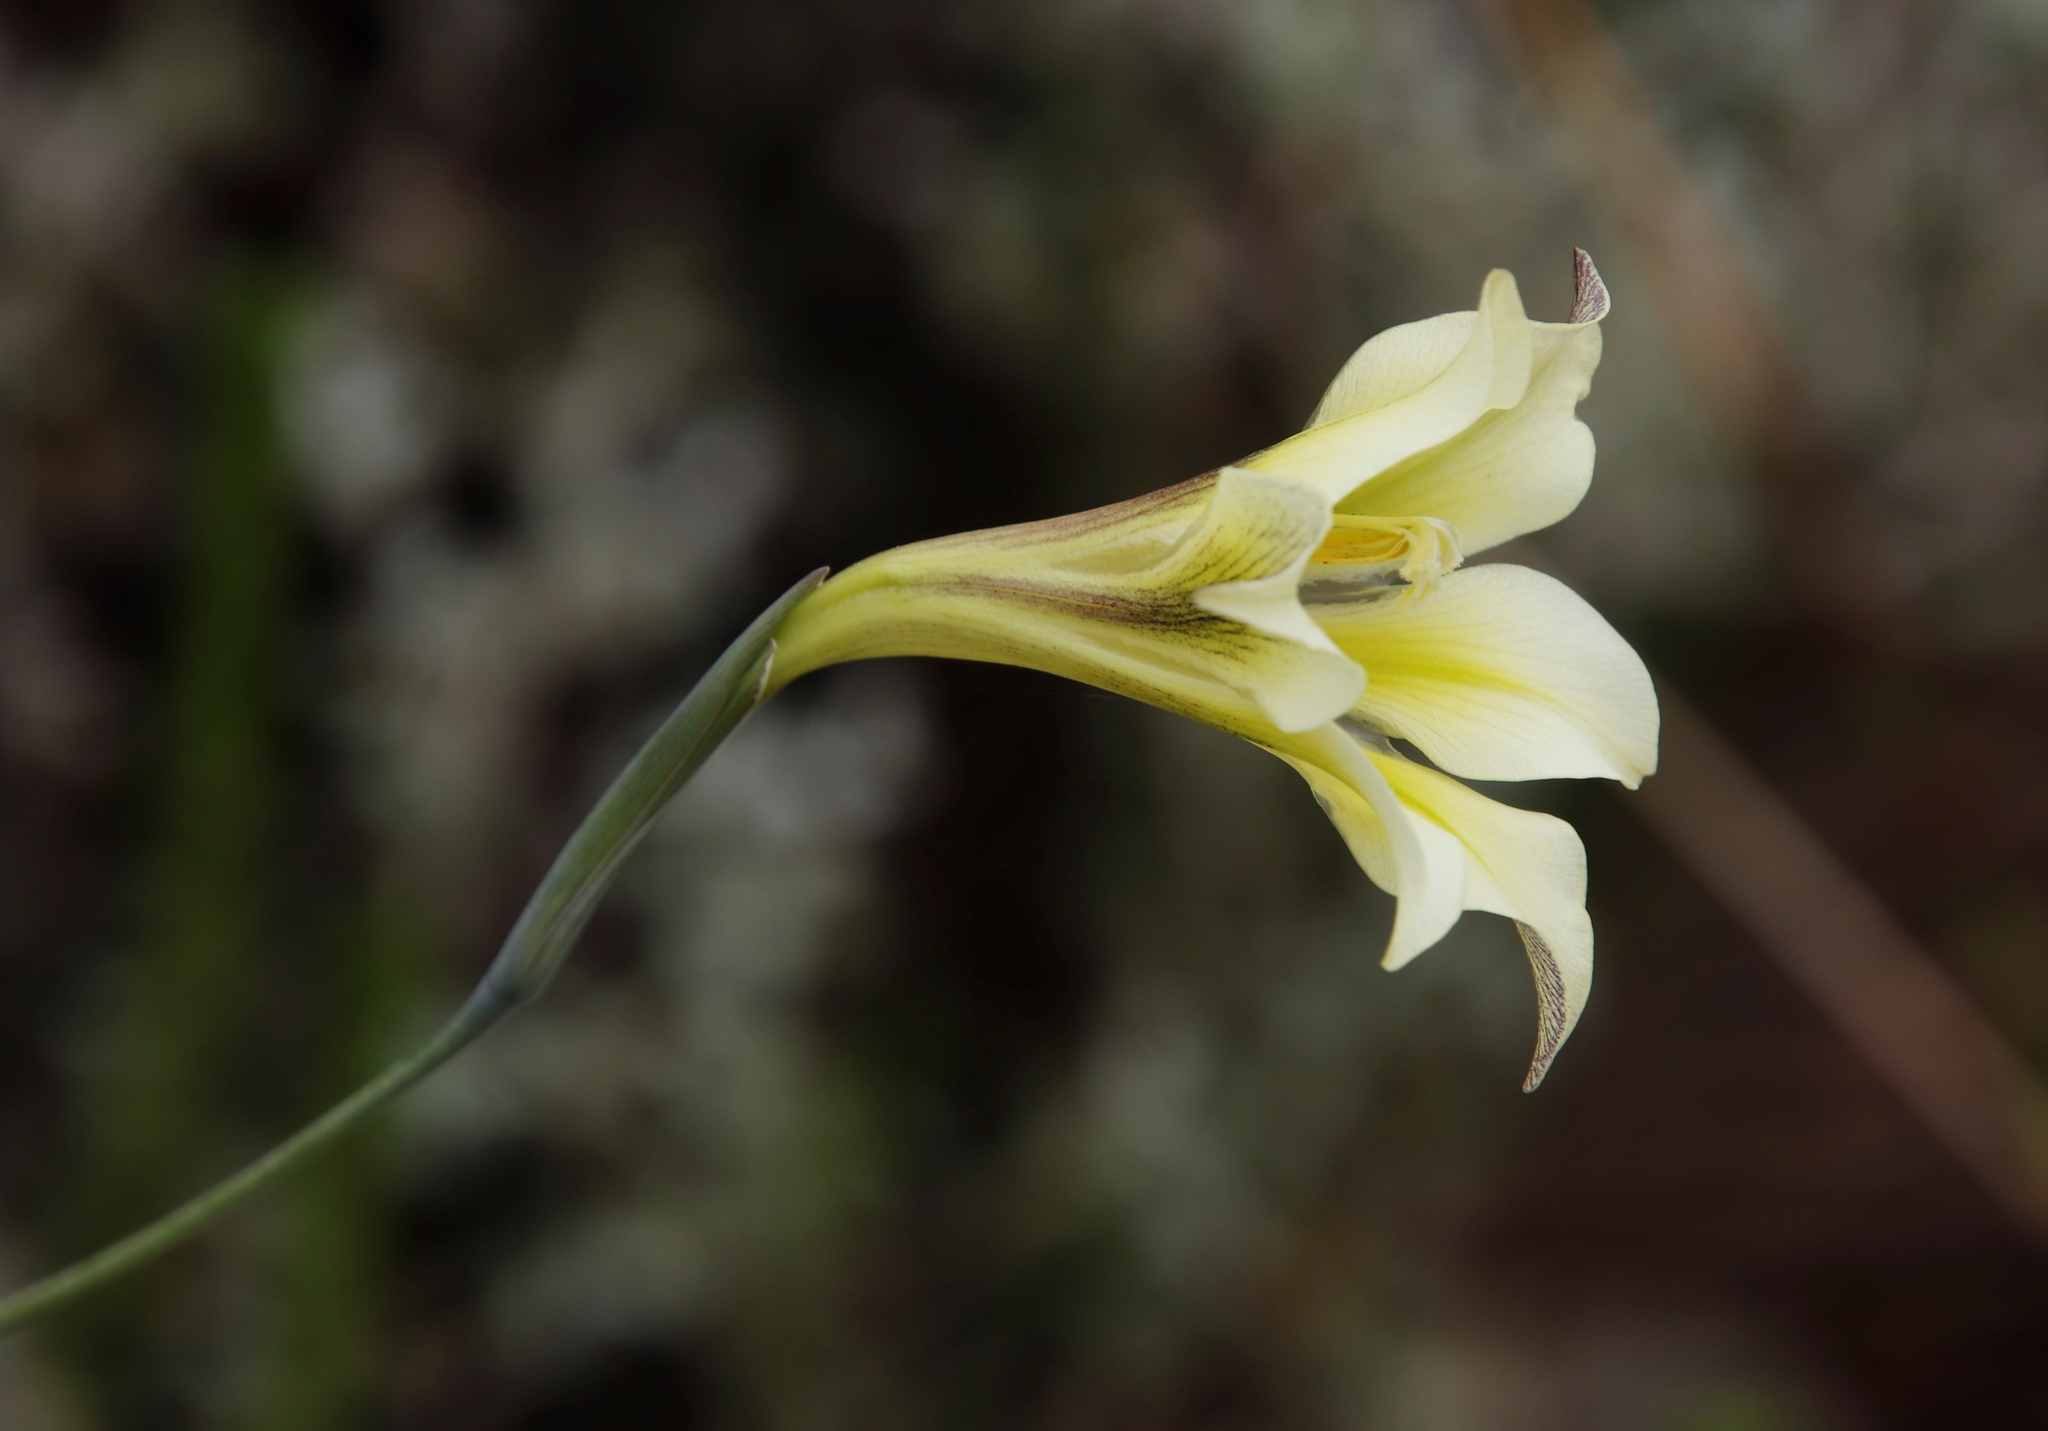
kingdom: Plantae
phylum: Tracheophyta
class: Liliopsida
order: Asparagales
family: Iridaceae
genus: Gladiolus
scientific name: Gladiolus tristis
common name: Ever-flowering gladiolus
